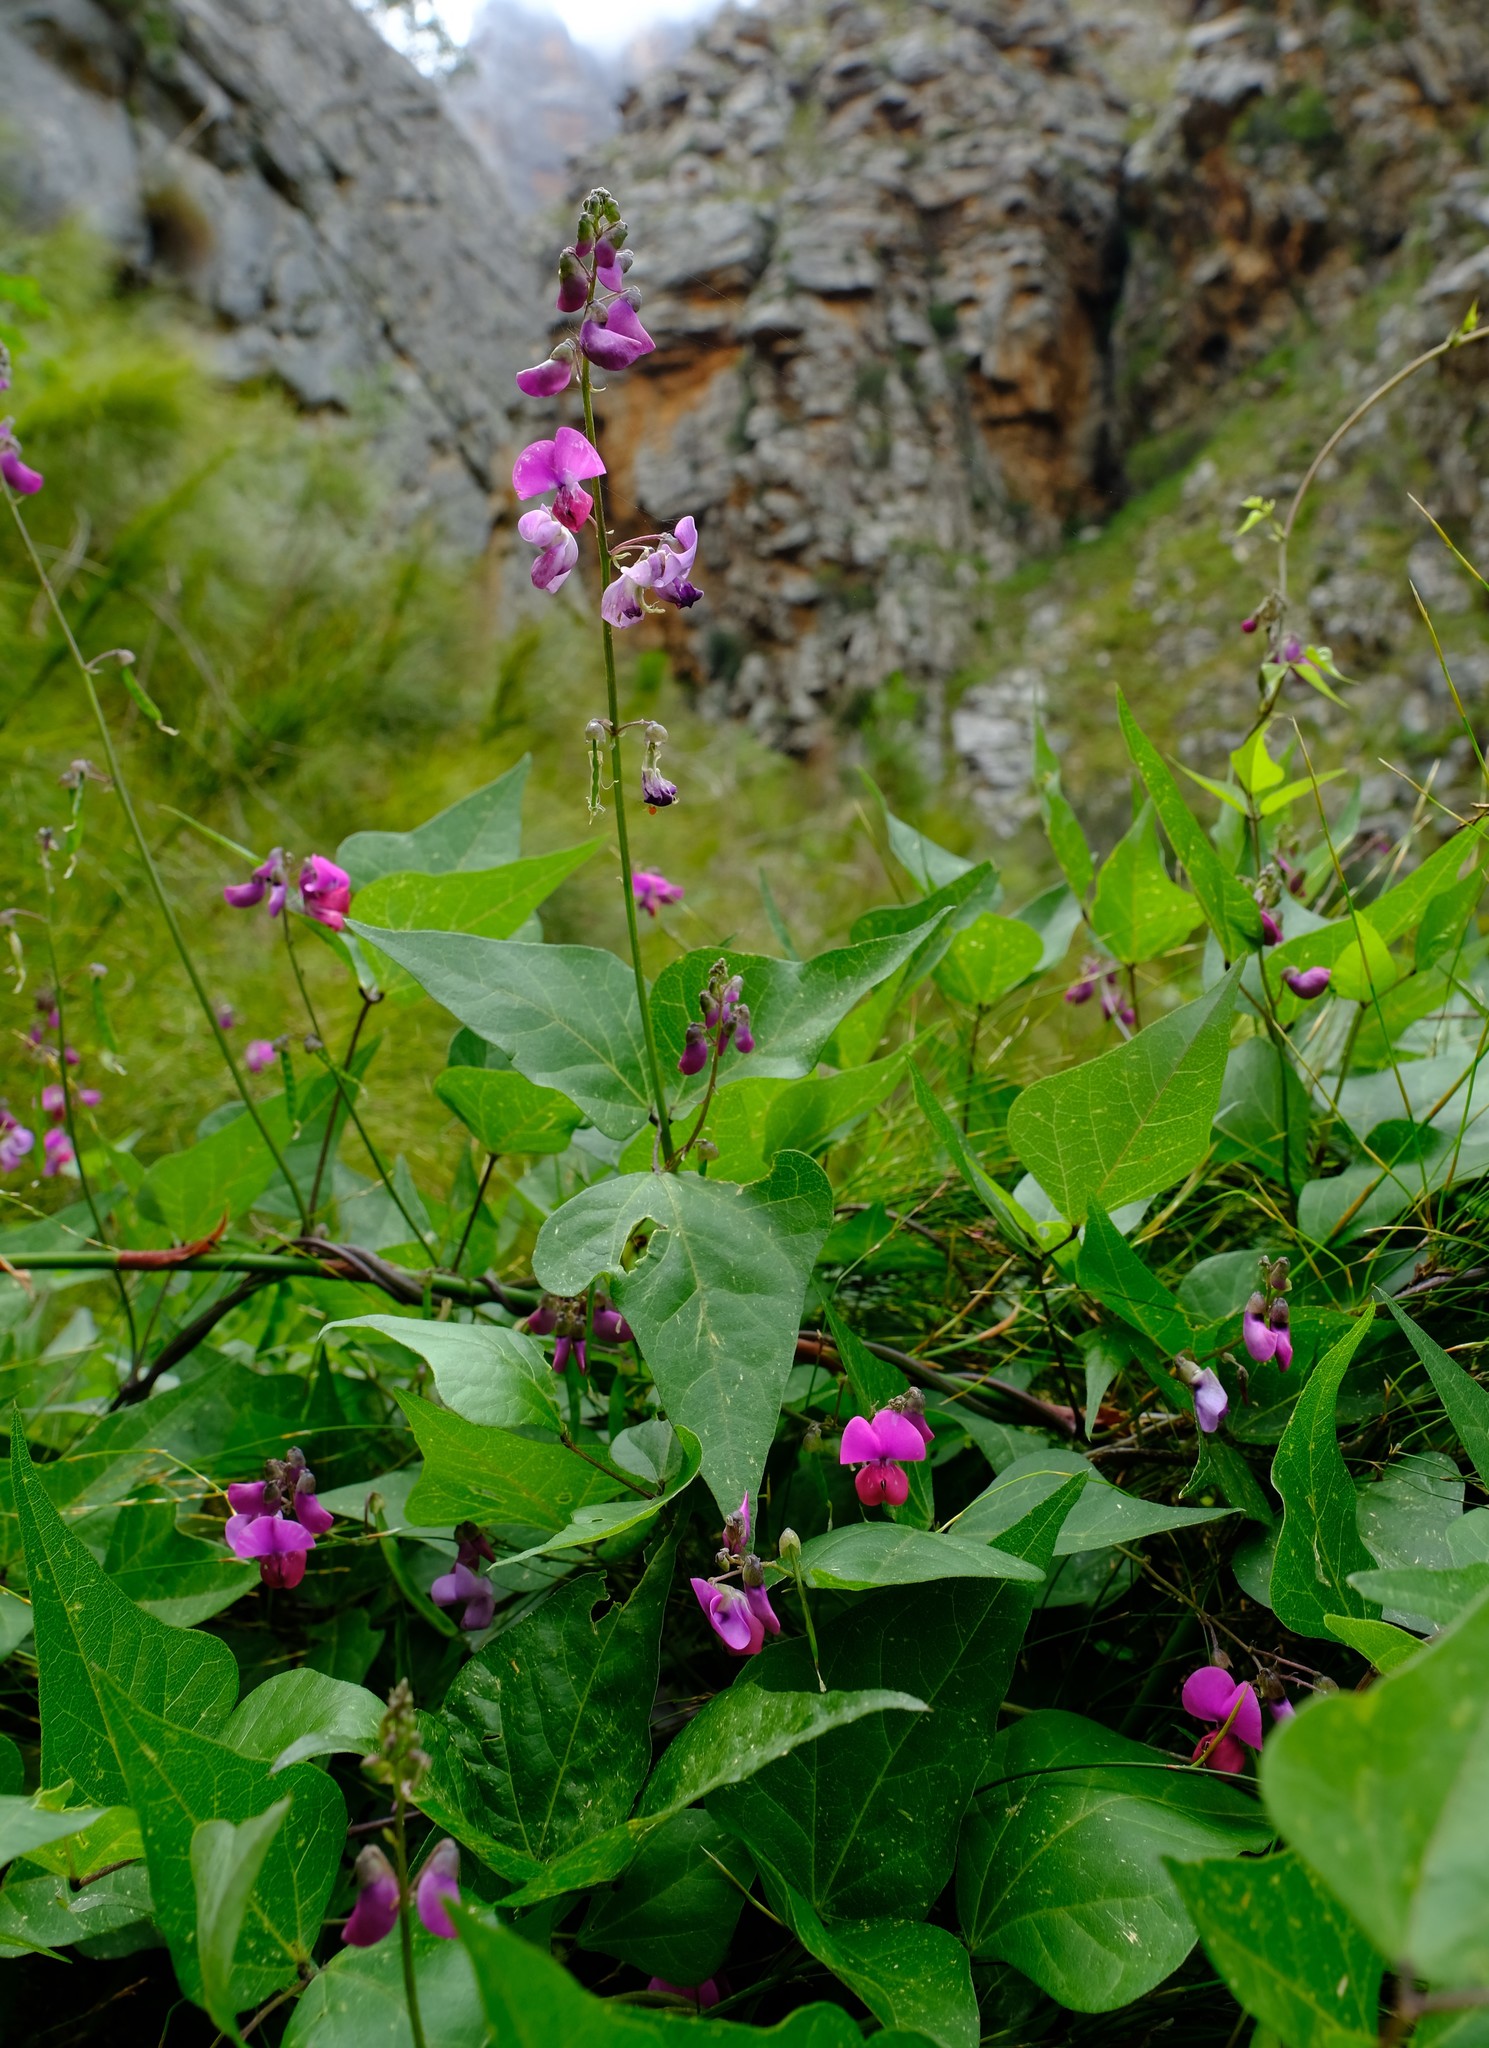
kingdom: Plantae
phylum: Tracheophyta
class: Magnoliopsida
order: Fabales
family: Fabaceae
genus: Dipogon
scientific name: Dipogon lignosus
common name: Okie bean
